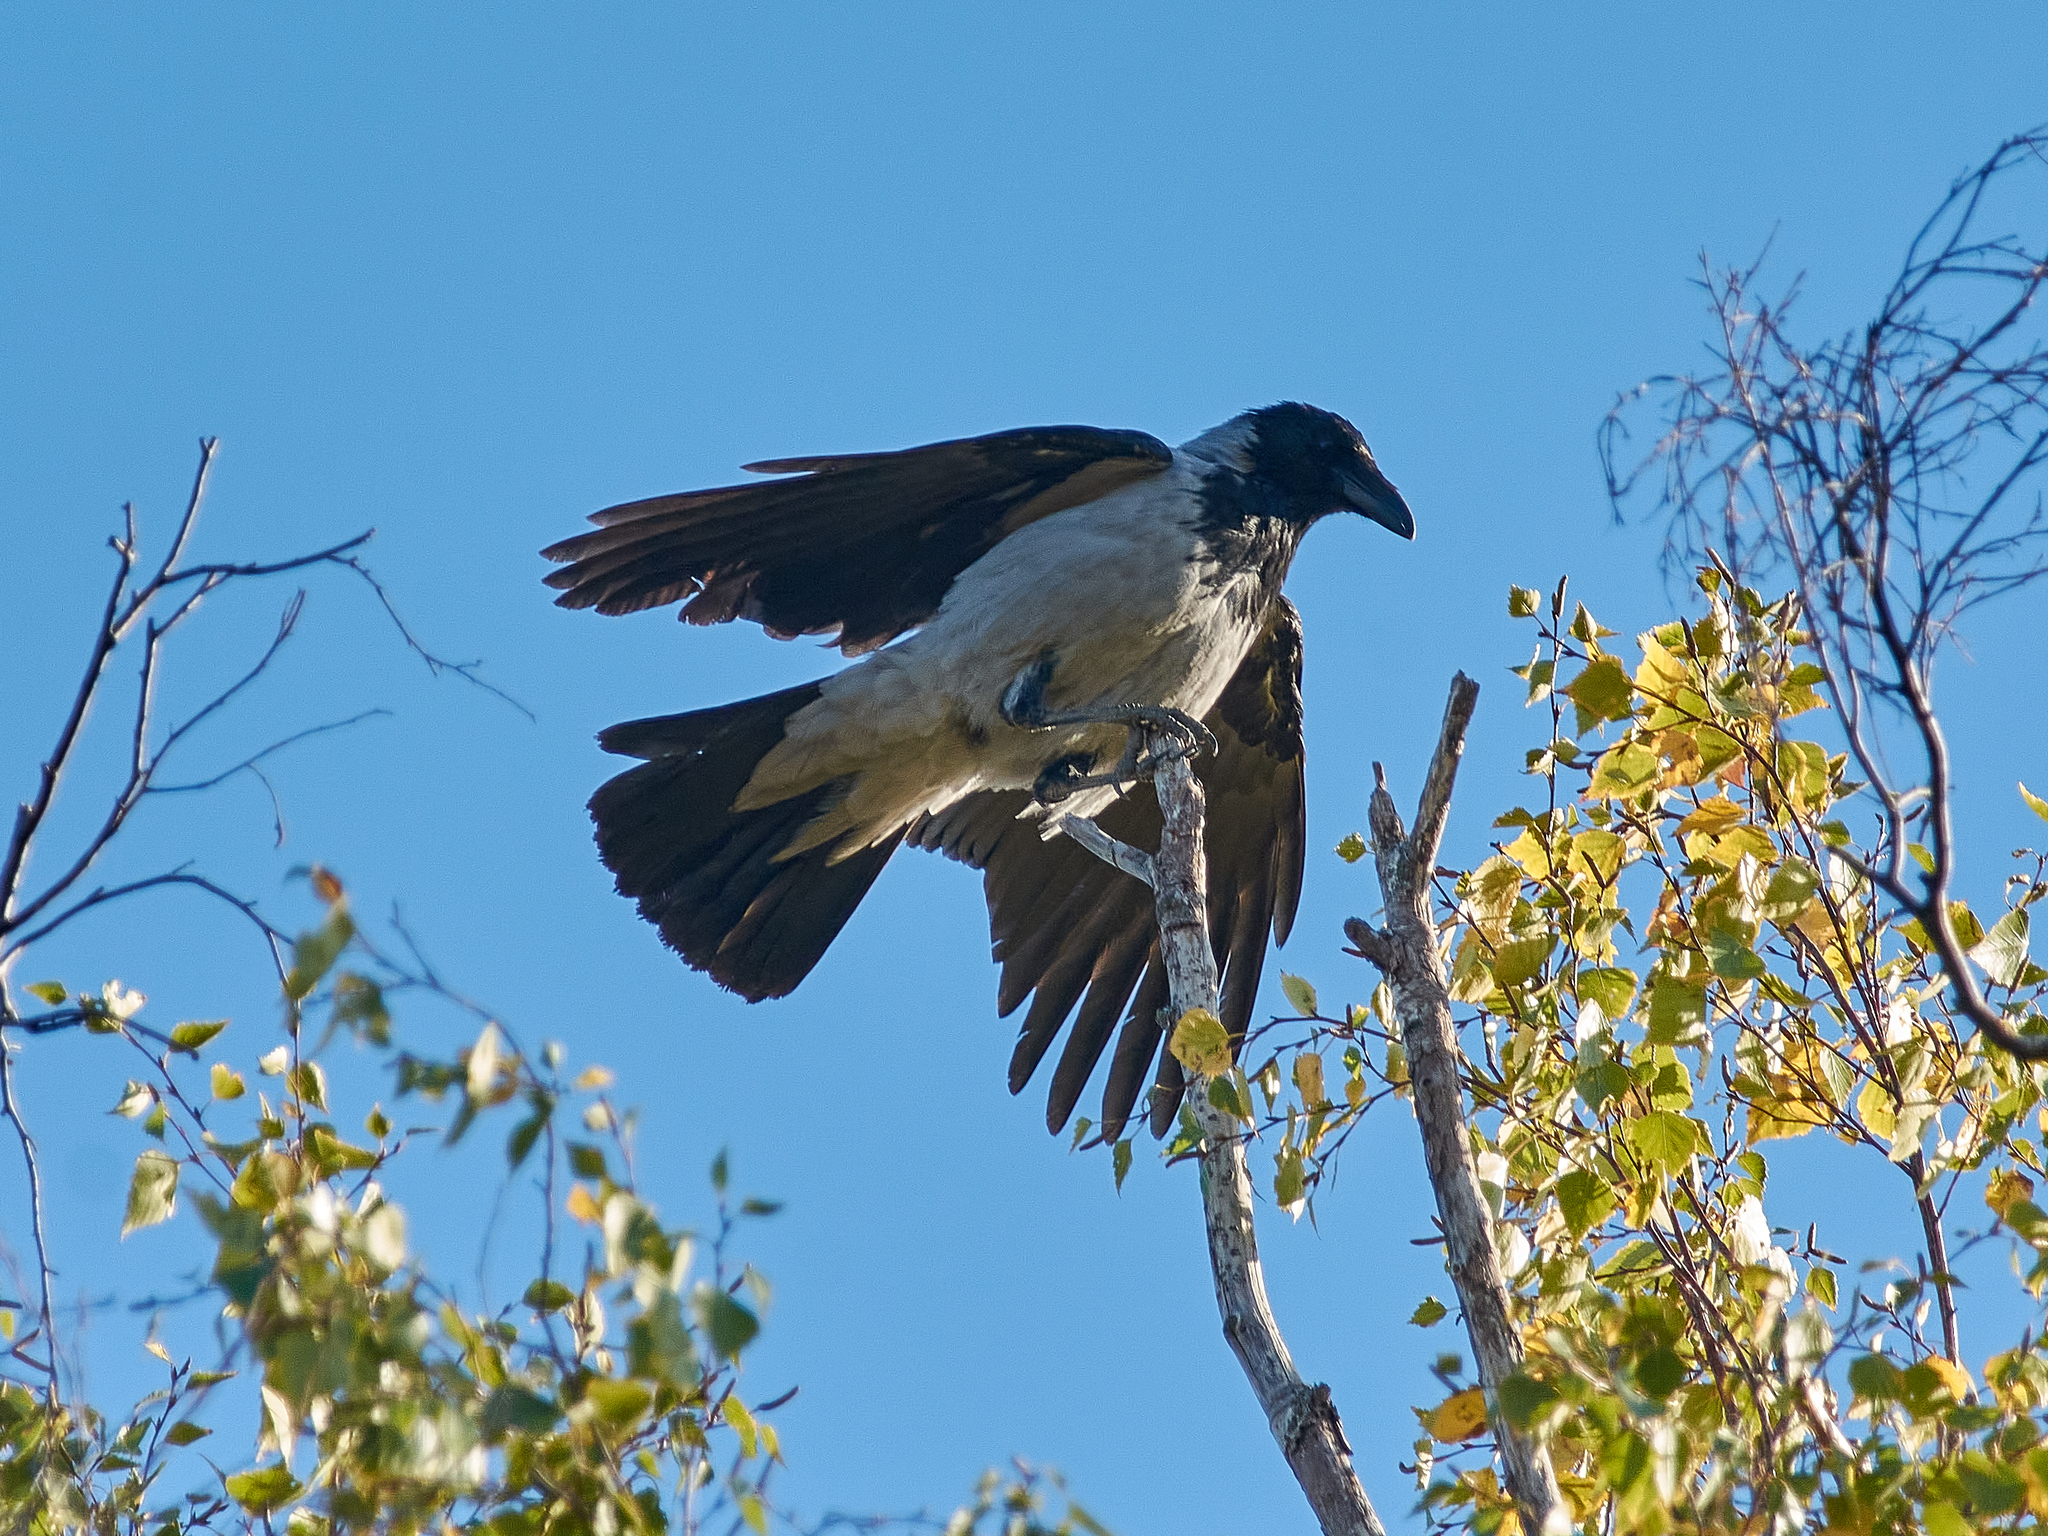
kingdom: Animalia
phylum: Chordata
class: Aves
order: Passeriformes
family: Corvidae
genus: Corvus
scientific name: Corvus cornix
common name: Hooded crow
